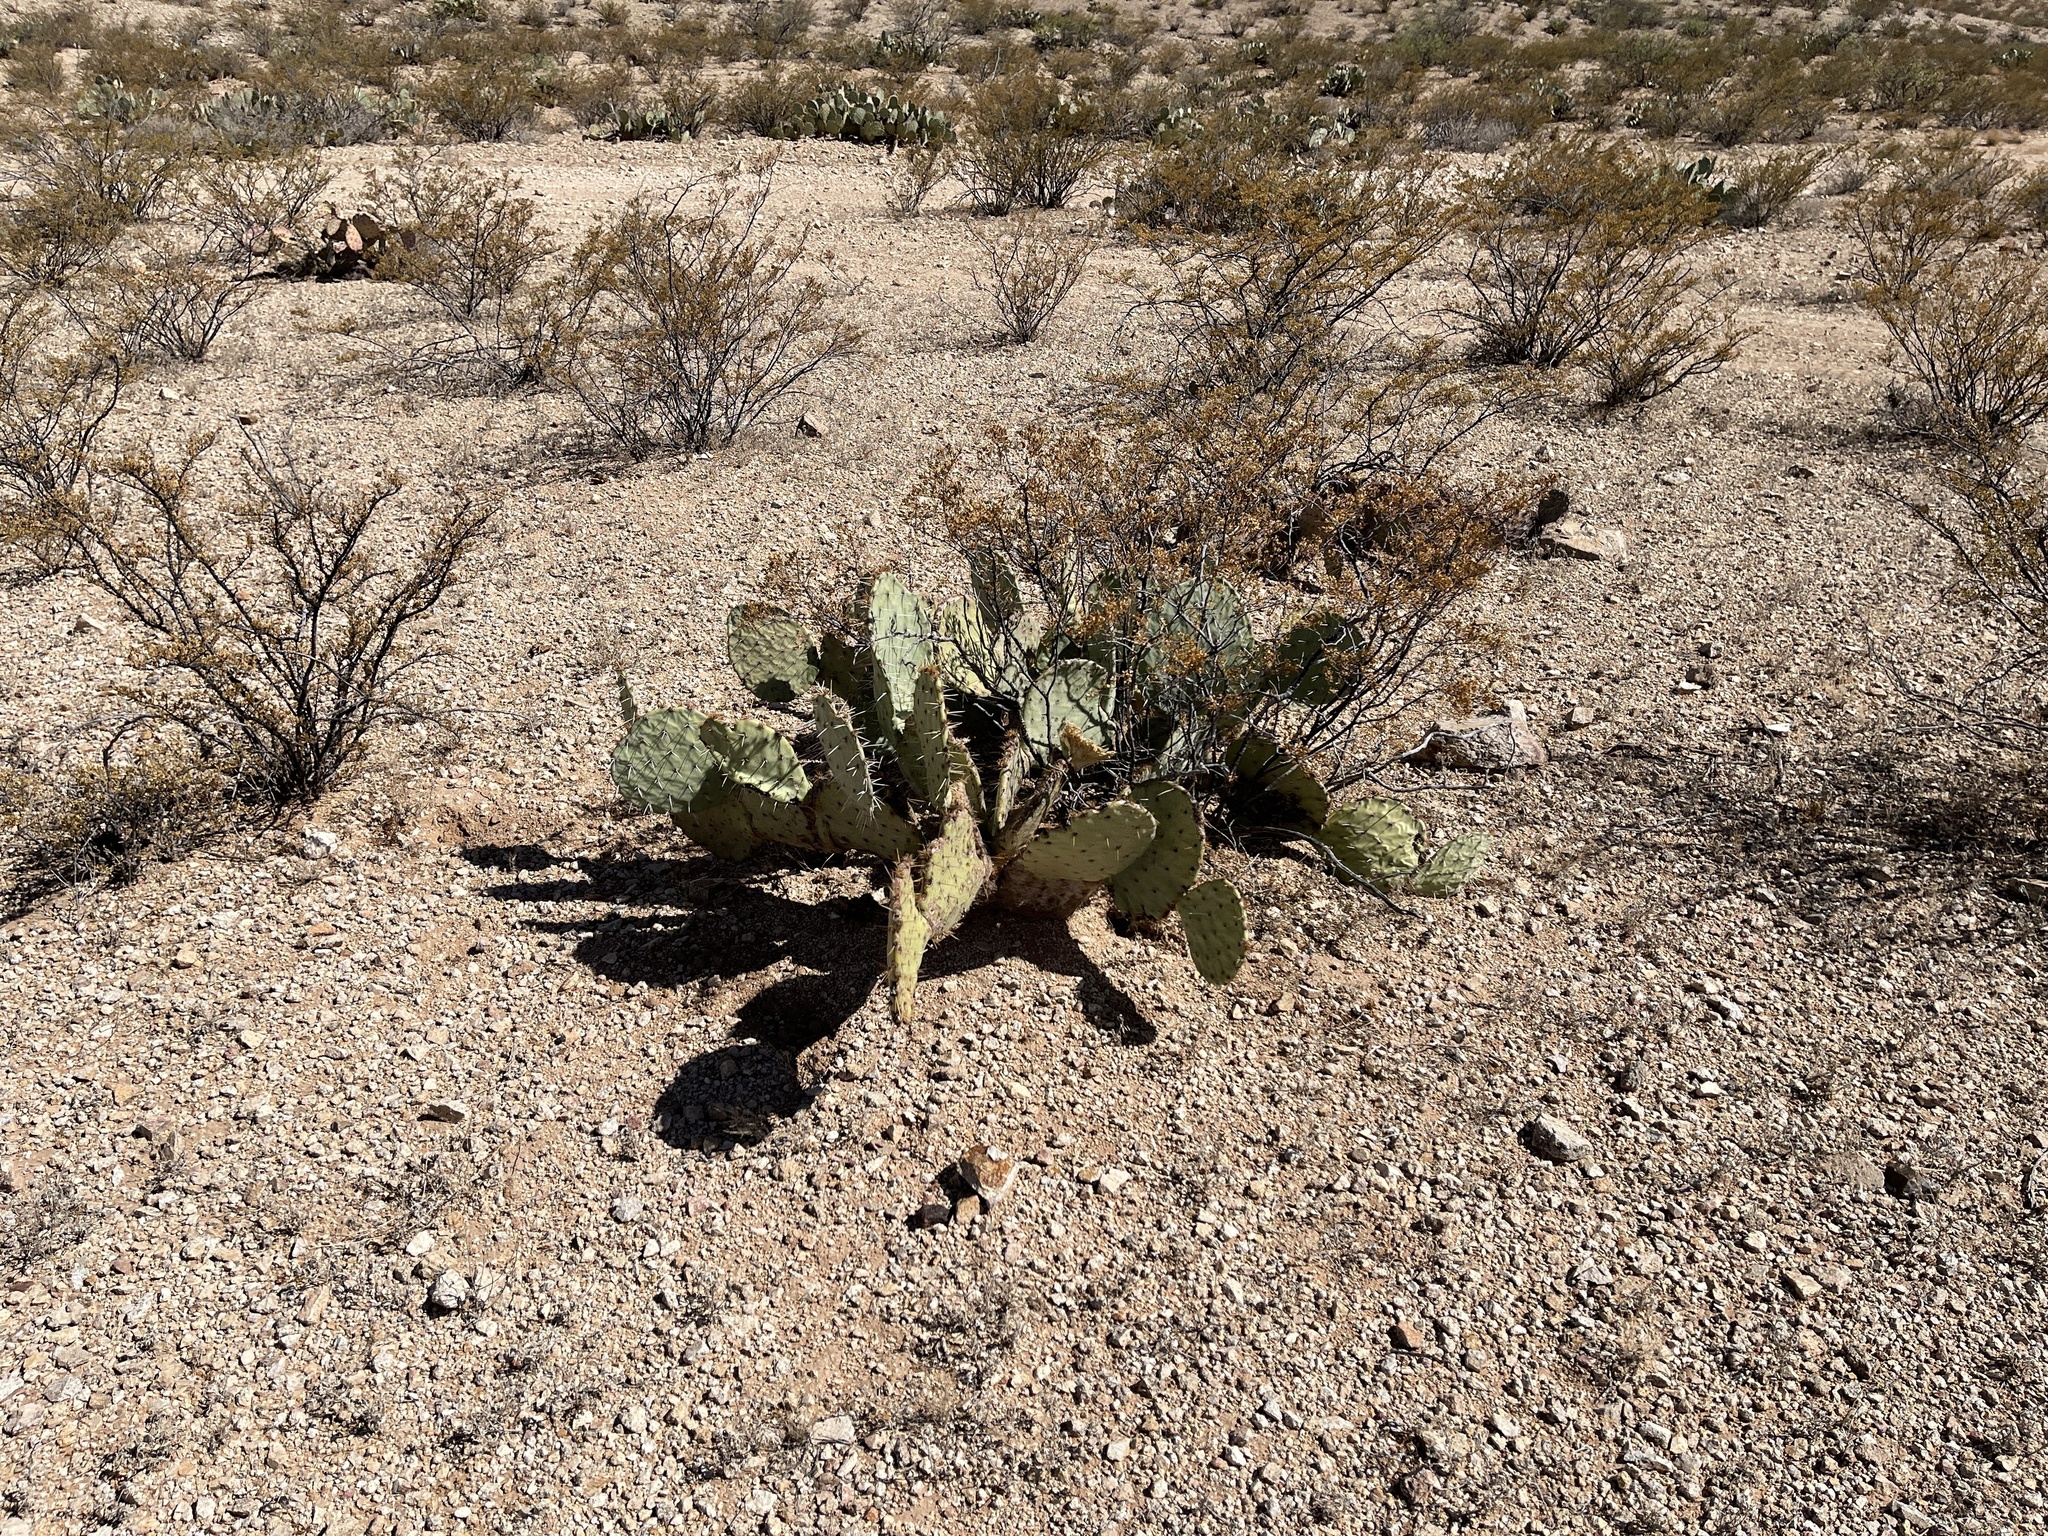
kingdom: Plantae
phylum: Tracheophyta
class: Magnoliopsida
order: Caryophyllales
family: Cactaceae
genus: Opuntia
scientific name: Opuntia engelmannii
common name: Cactus-apple
